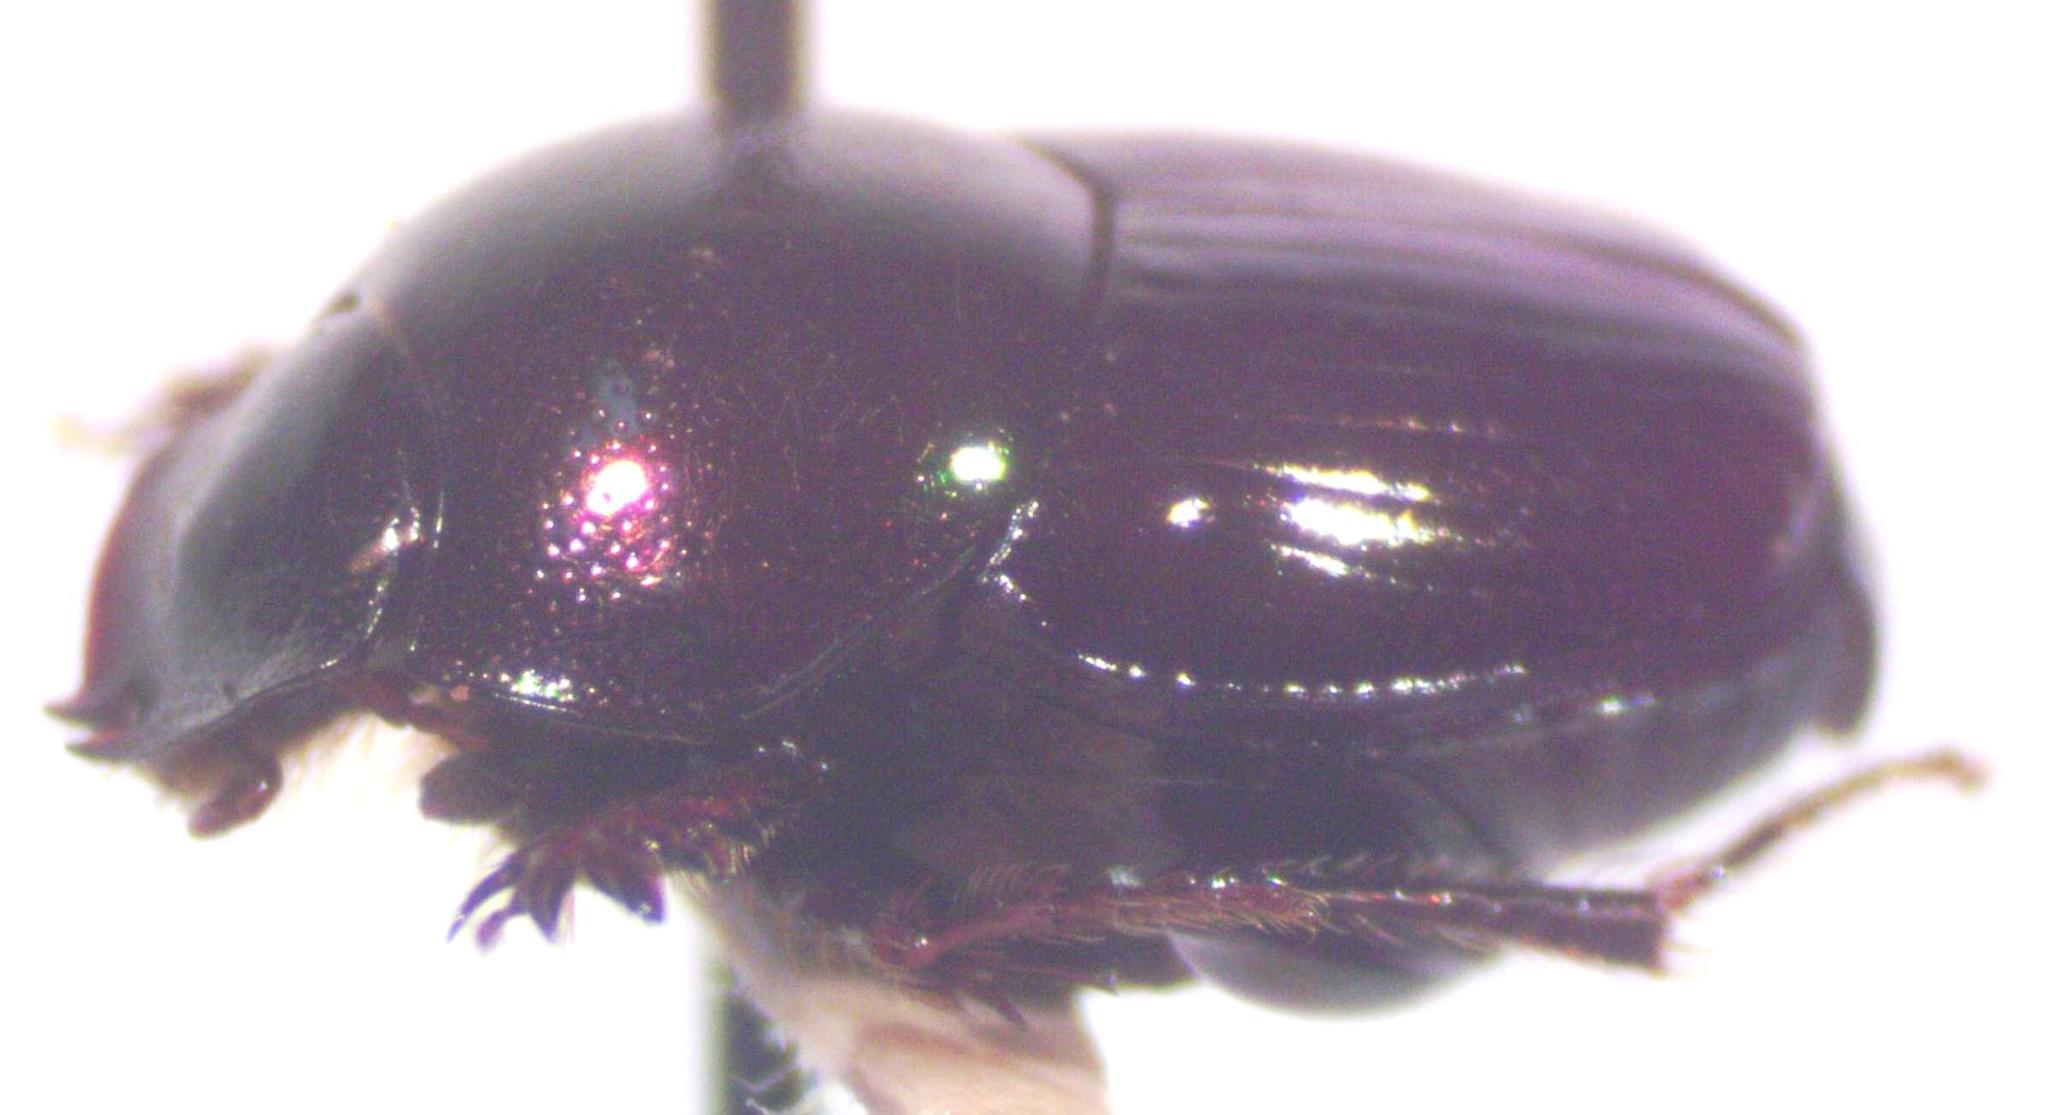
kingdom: Animalia
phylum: Arthropoda
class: Insecta
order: Coleoptera
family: Scarabaeidae
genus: Onthophagus
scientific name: Onthophagus tapirus
